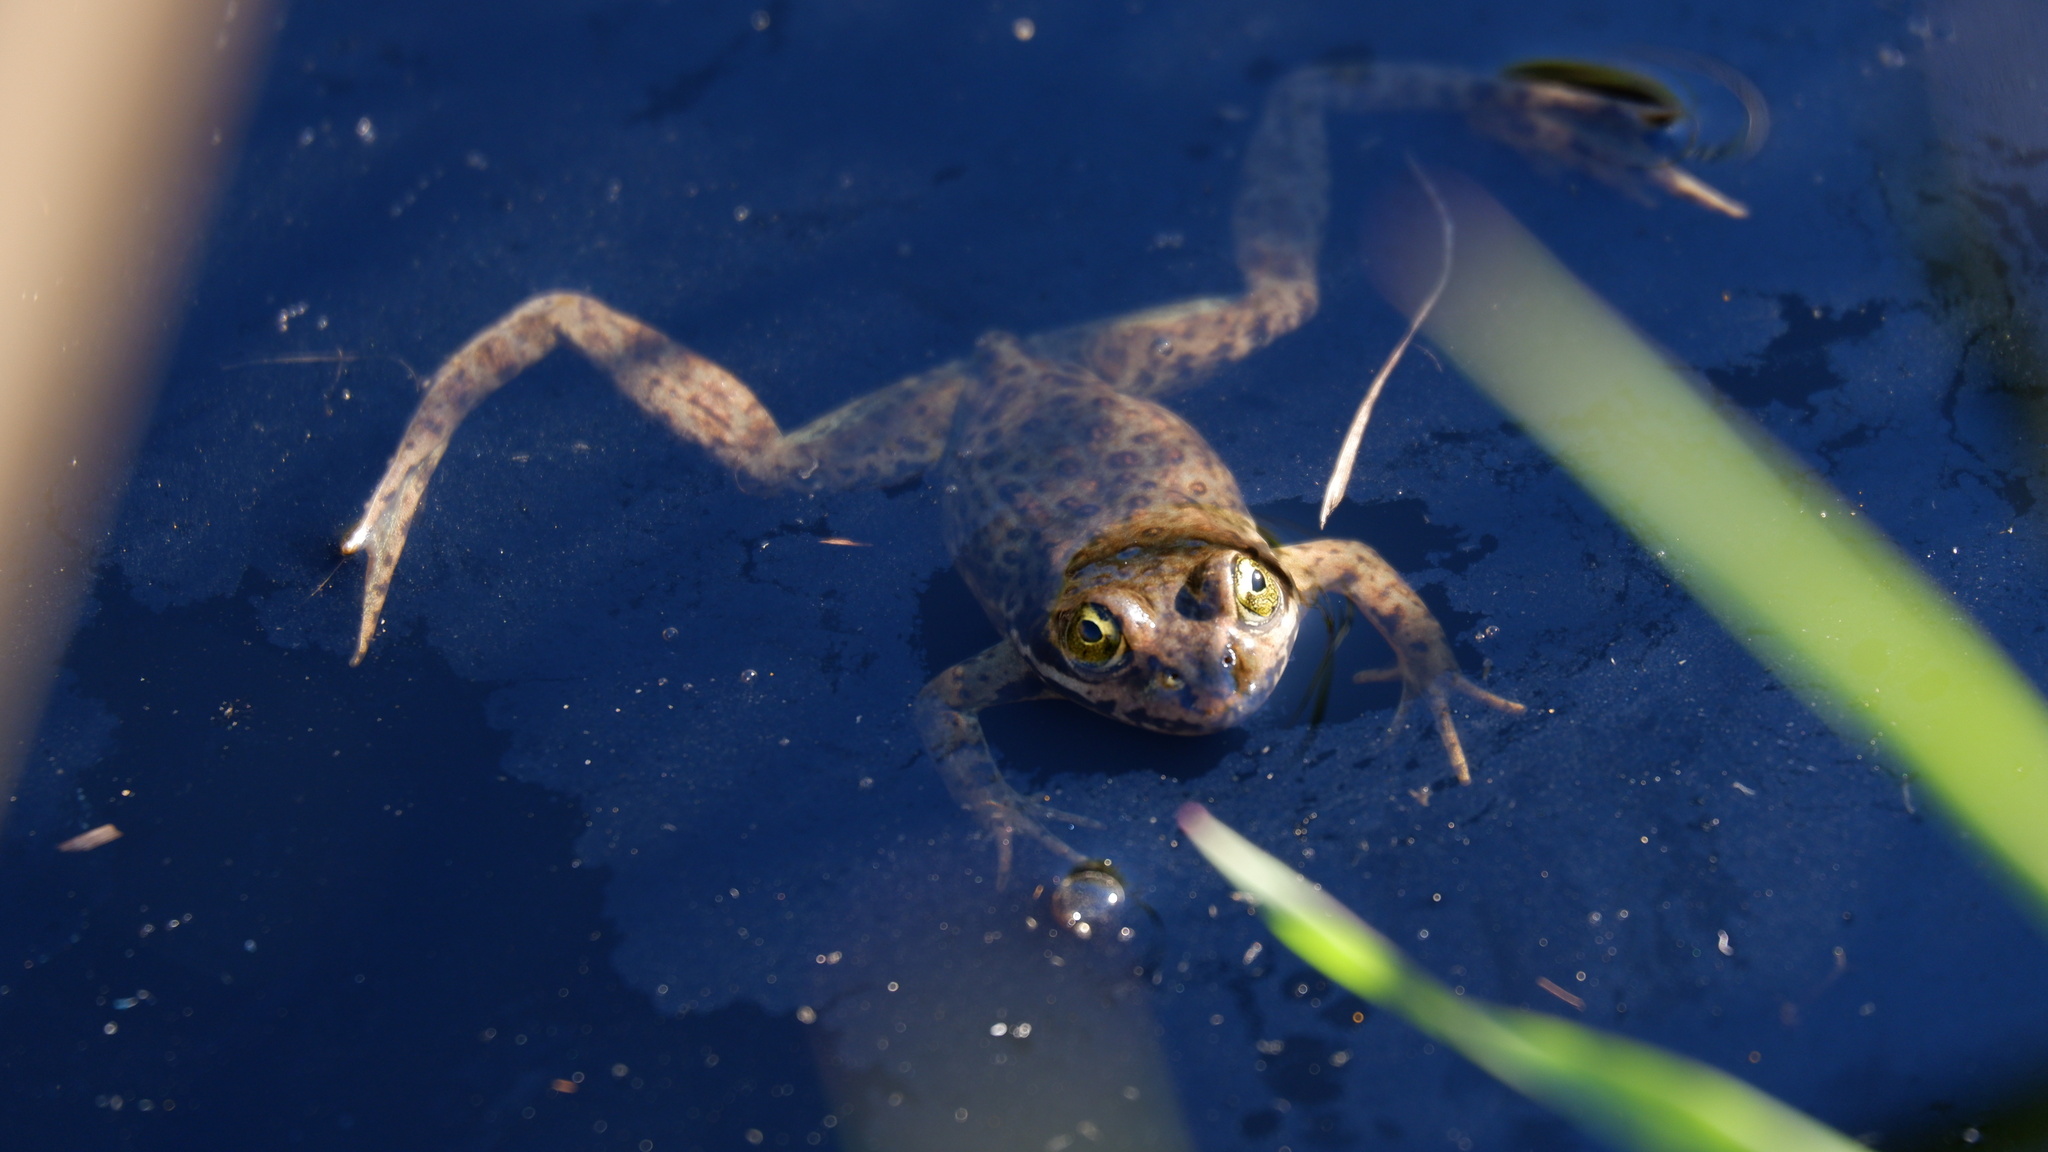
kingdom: Animalia
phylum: Chordata
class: Amphibia
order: Anura
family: Ranidae
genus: Rana
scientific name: Rana pretiosa
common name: Oregon spotted frog
